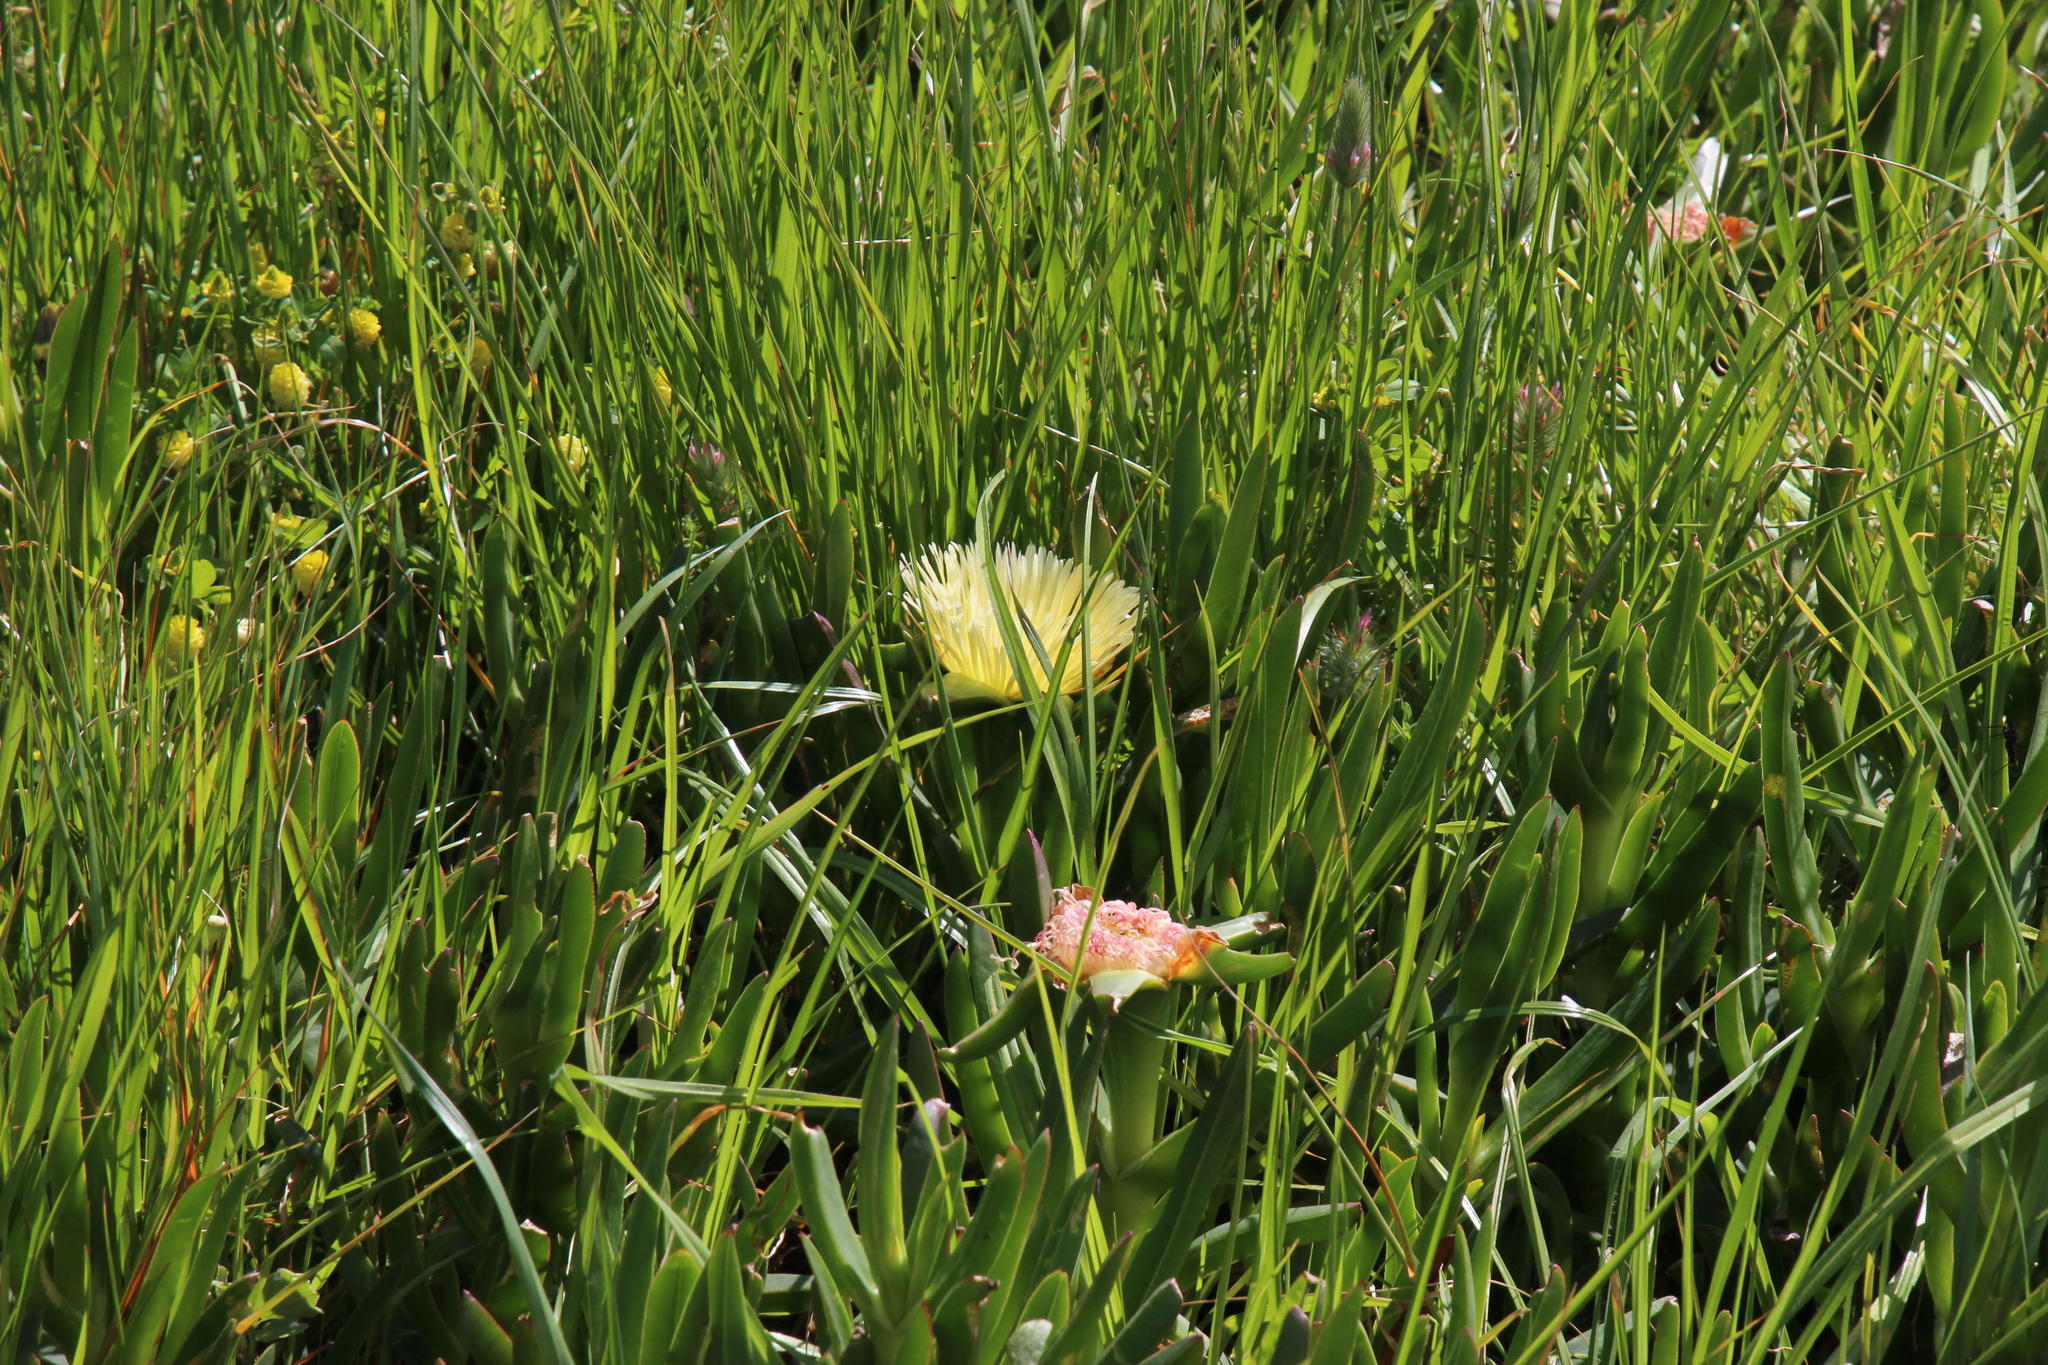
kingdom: Plantae
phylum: Tracheophyta
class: Magnoliopsida
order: Caryophyllales
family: Aizoaceae
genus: Carpobrotus
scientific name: Carpobrotus edulis
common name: Hottentot-fig
